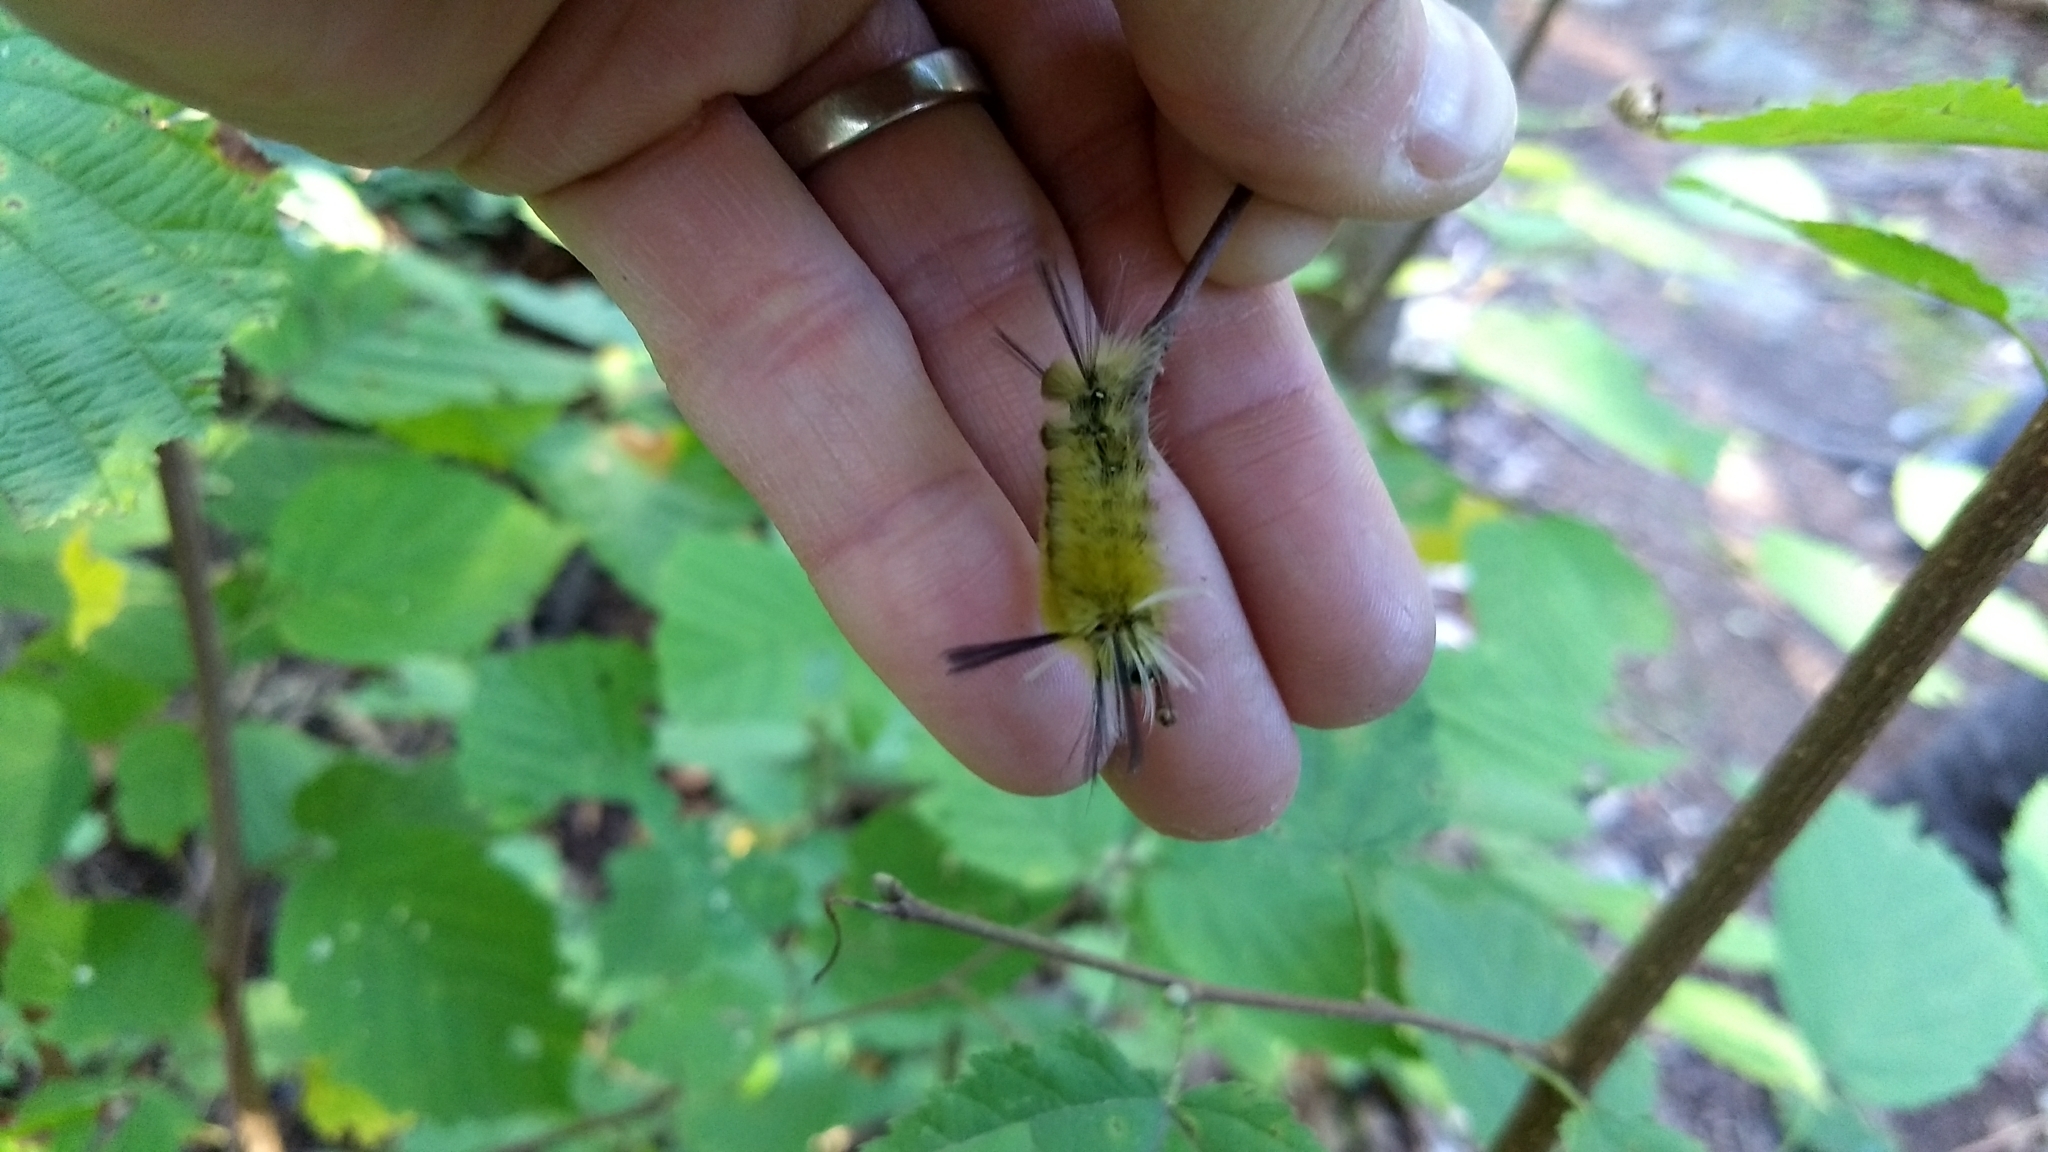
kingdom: Animalia
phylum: Arthropoda
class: Insecta
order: Lepidoptera
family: Erebidae
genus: Halysidota
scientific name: Halysidota tessellaris
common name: Banded tussock moth
